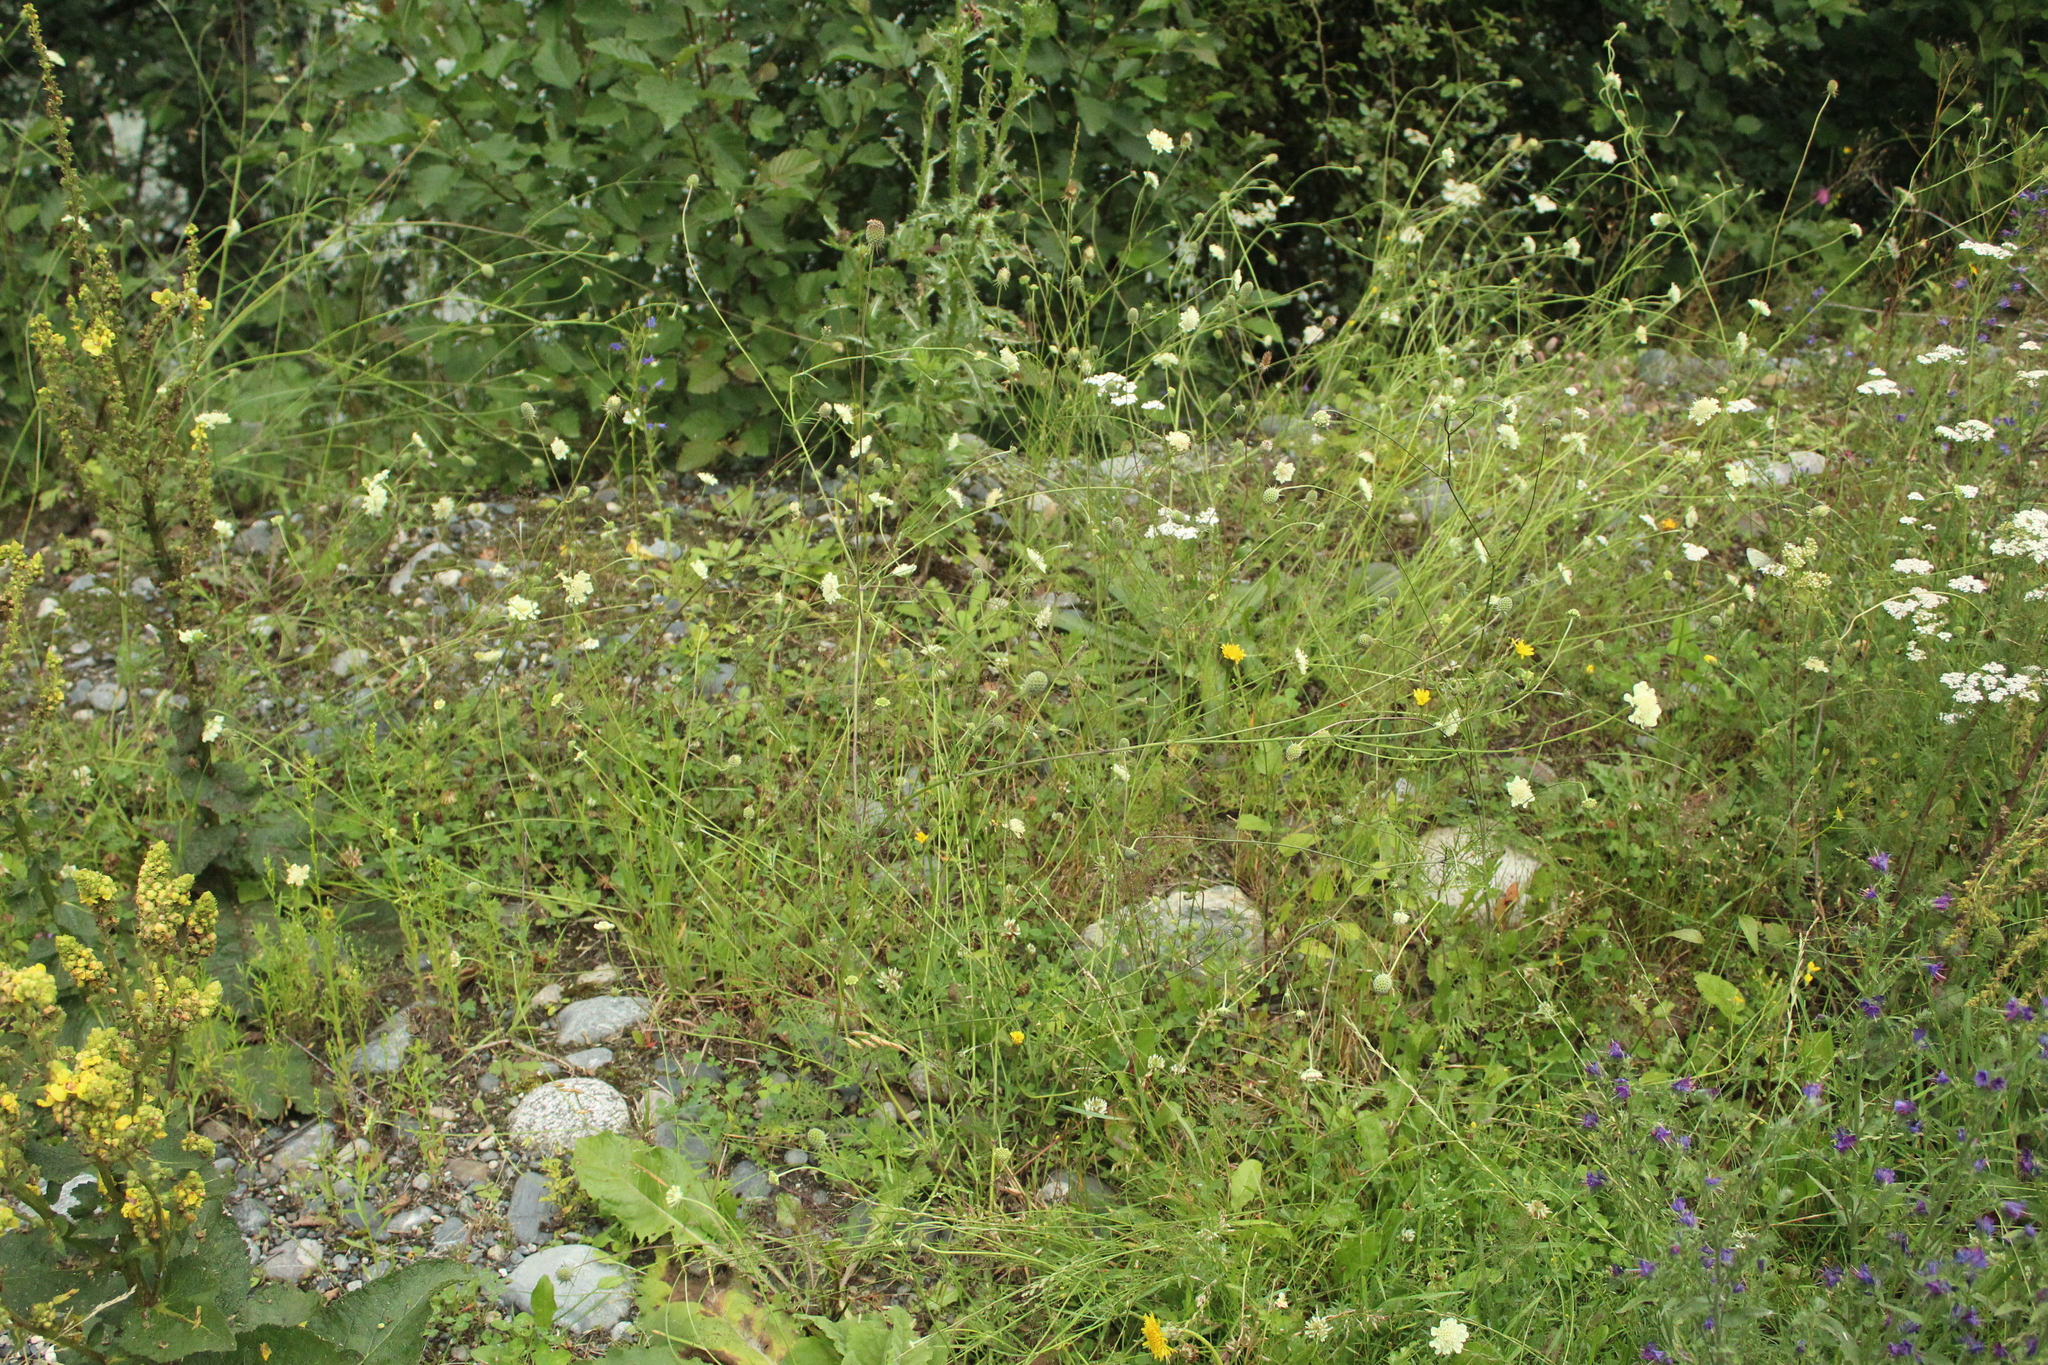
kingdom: Plantae
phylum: Tracheophyta
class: Magnoliopsida
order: Dipsacales
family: Caprifoliaceae
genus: Scabiosa
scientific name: Scabiosa bipinnata
